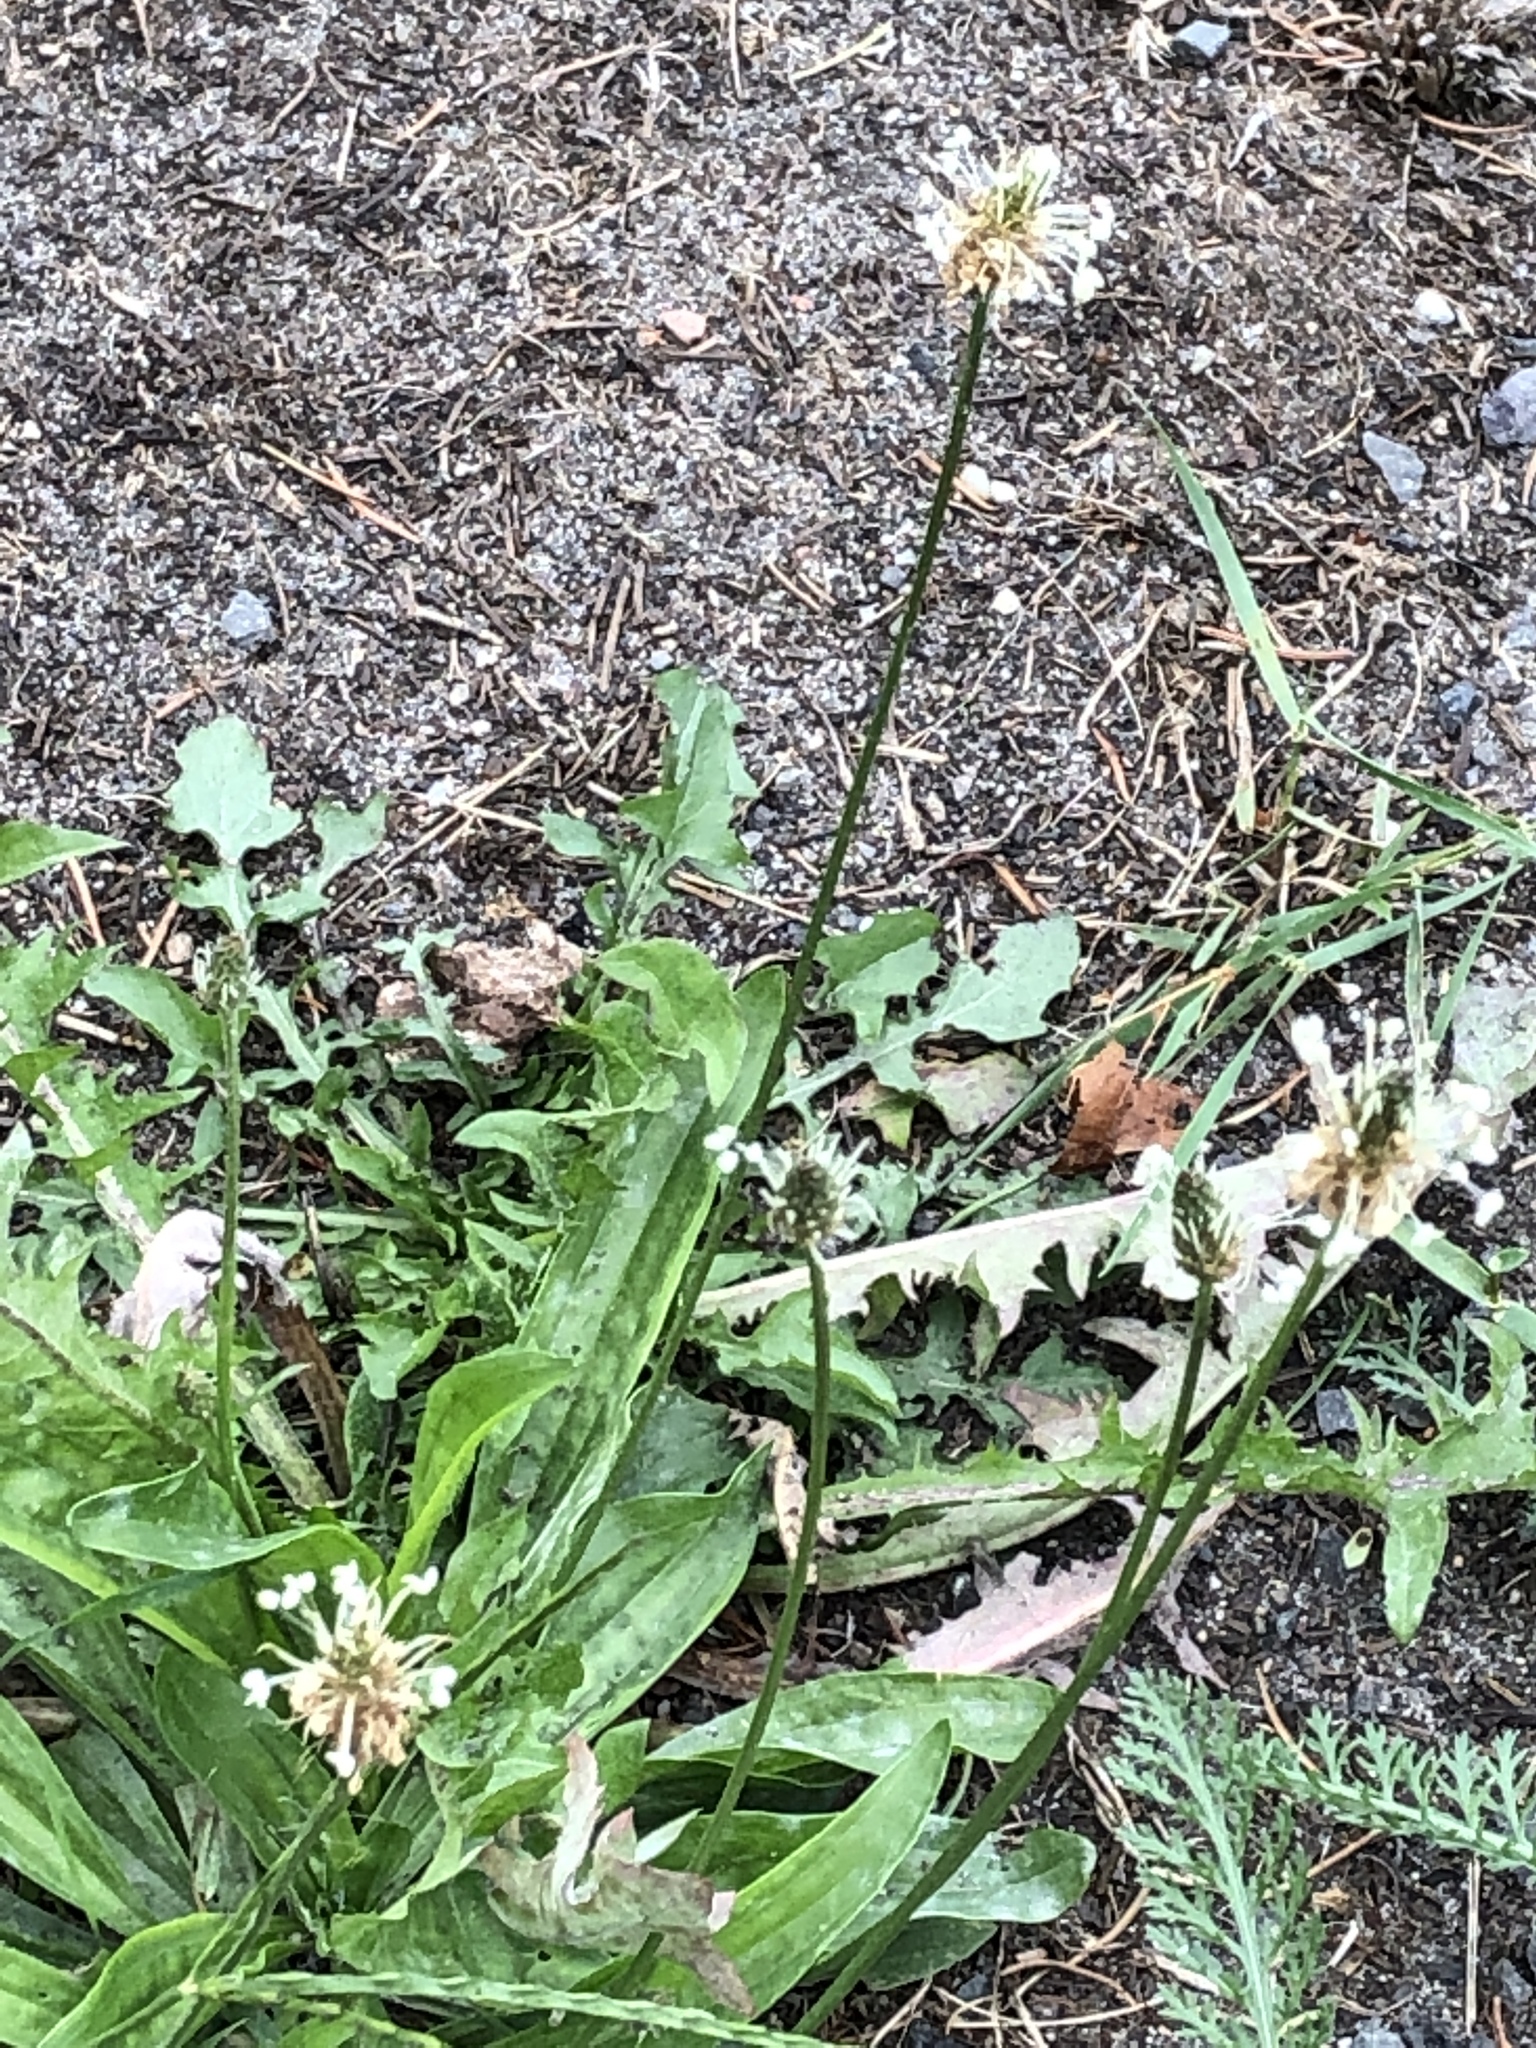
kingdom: Plantae
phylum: Tracheophyta
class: Magnoliopsida
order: Lamiales
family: Plantaginaceae
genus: Plantago
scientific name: Plantago lanceolata
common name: Ribwort plantain
